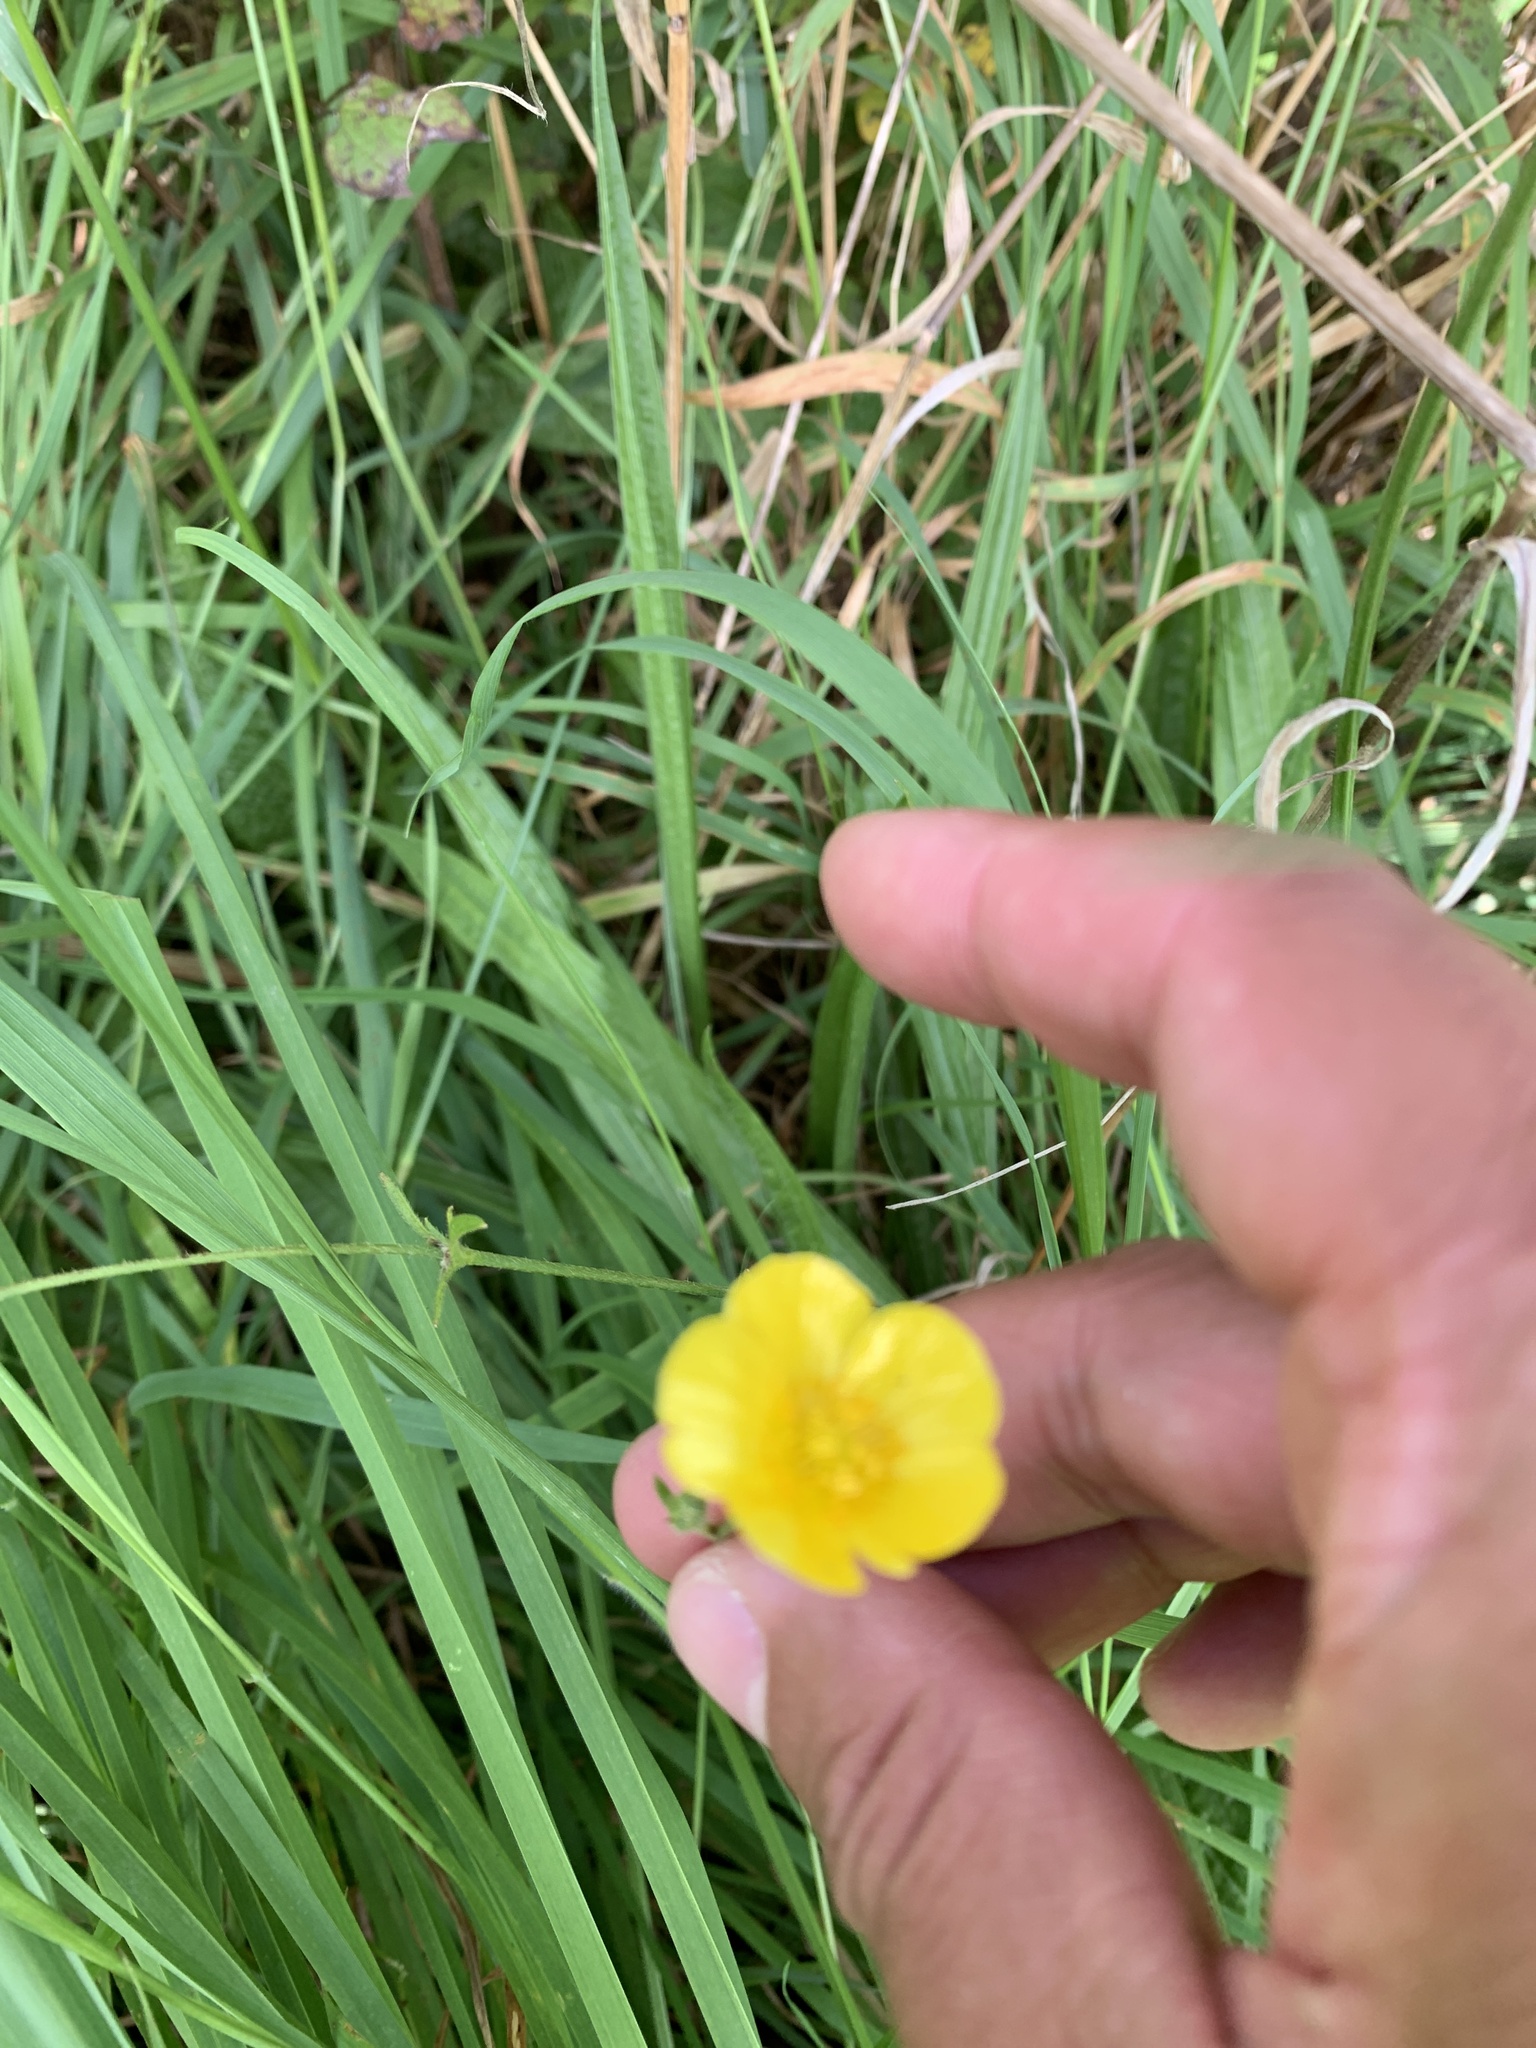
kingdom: Plantae
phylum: Tracheophyta
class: Magnoliopsida
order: Ranunculales
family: Ranunculaceae
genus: Ranunculus
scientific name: Ranunculus acris
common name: Meadow buttercup
